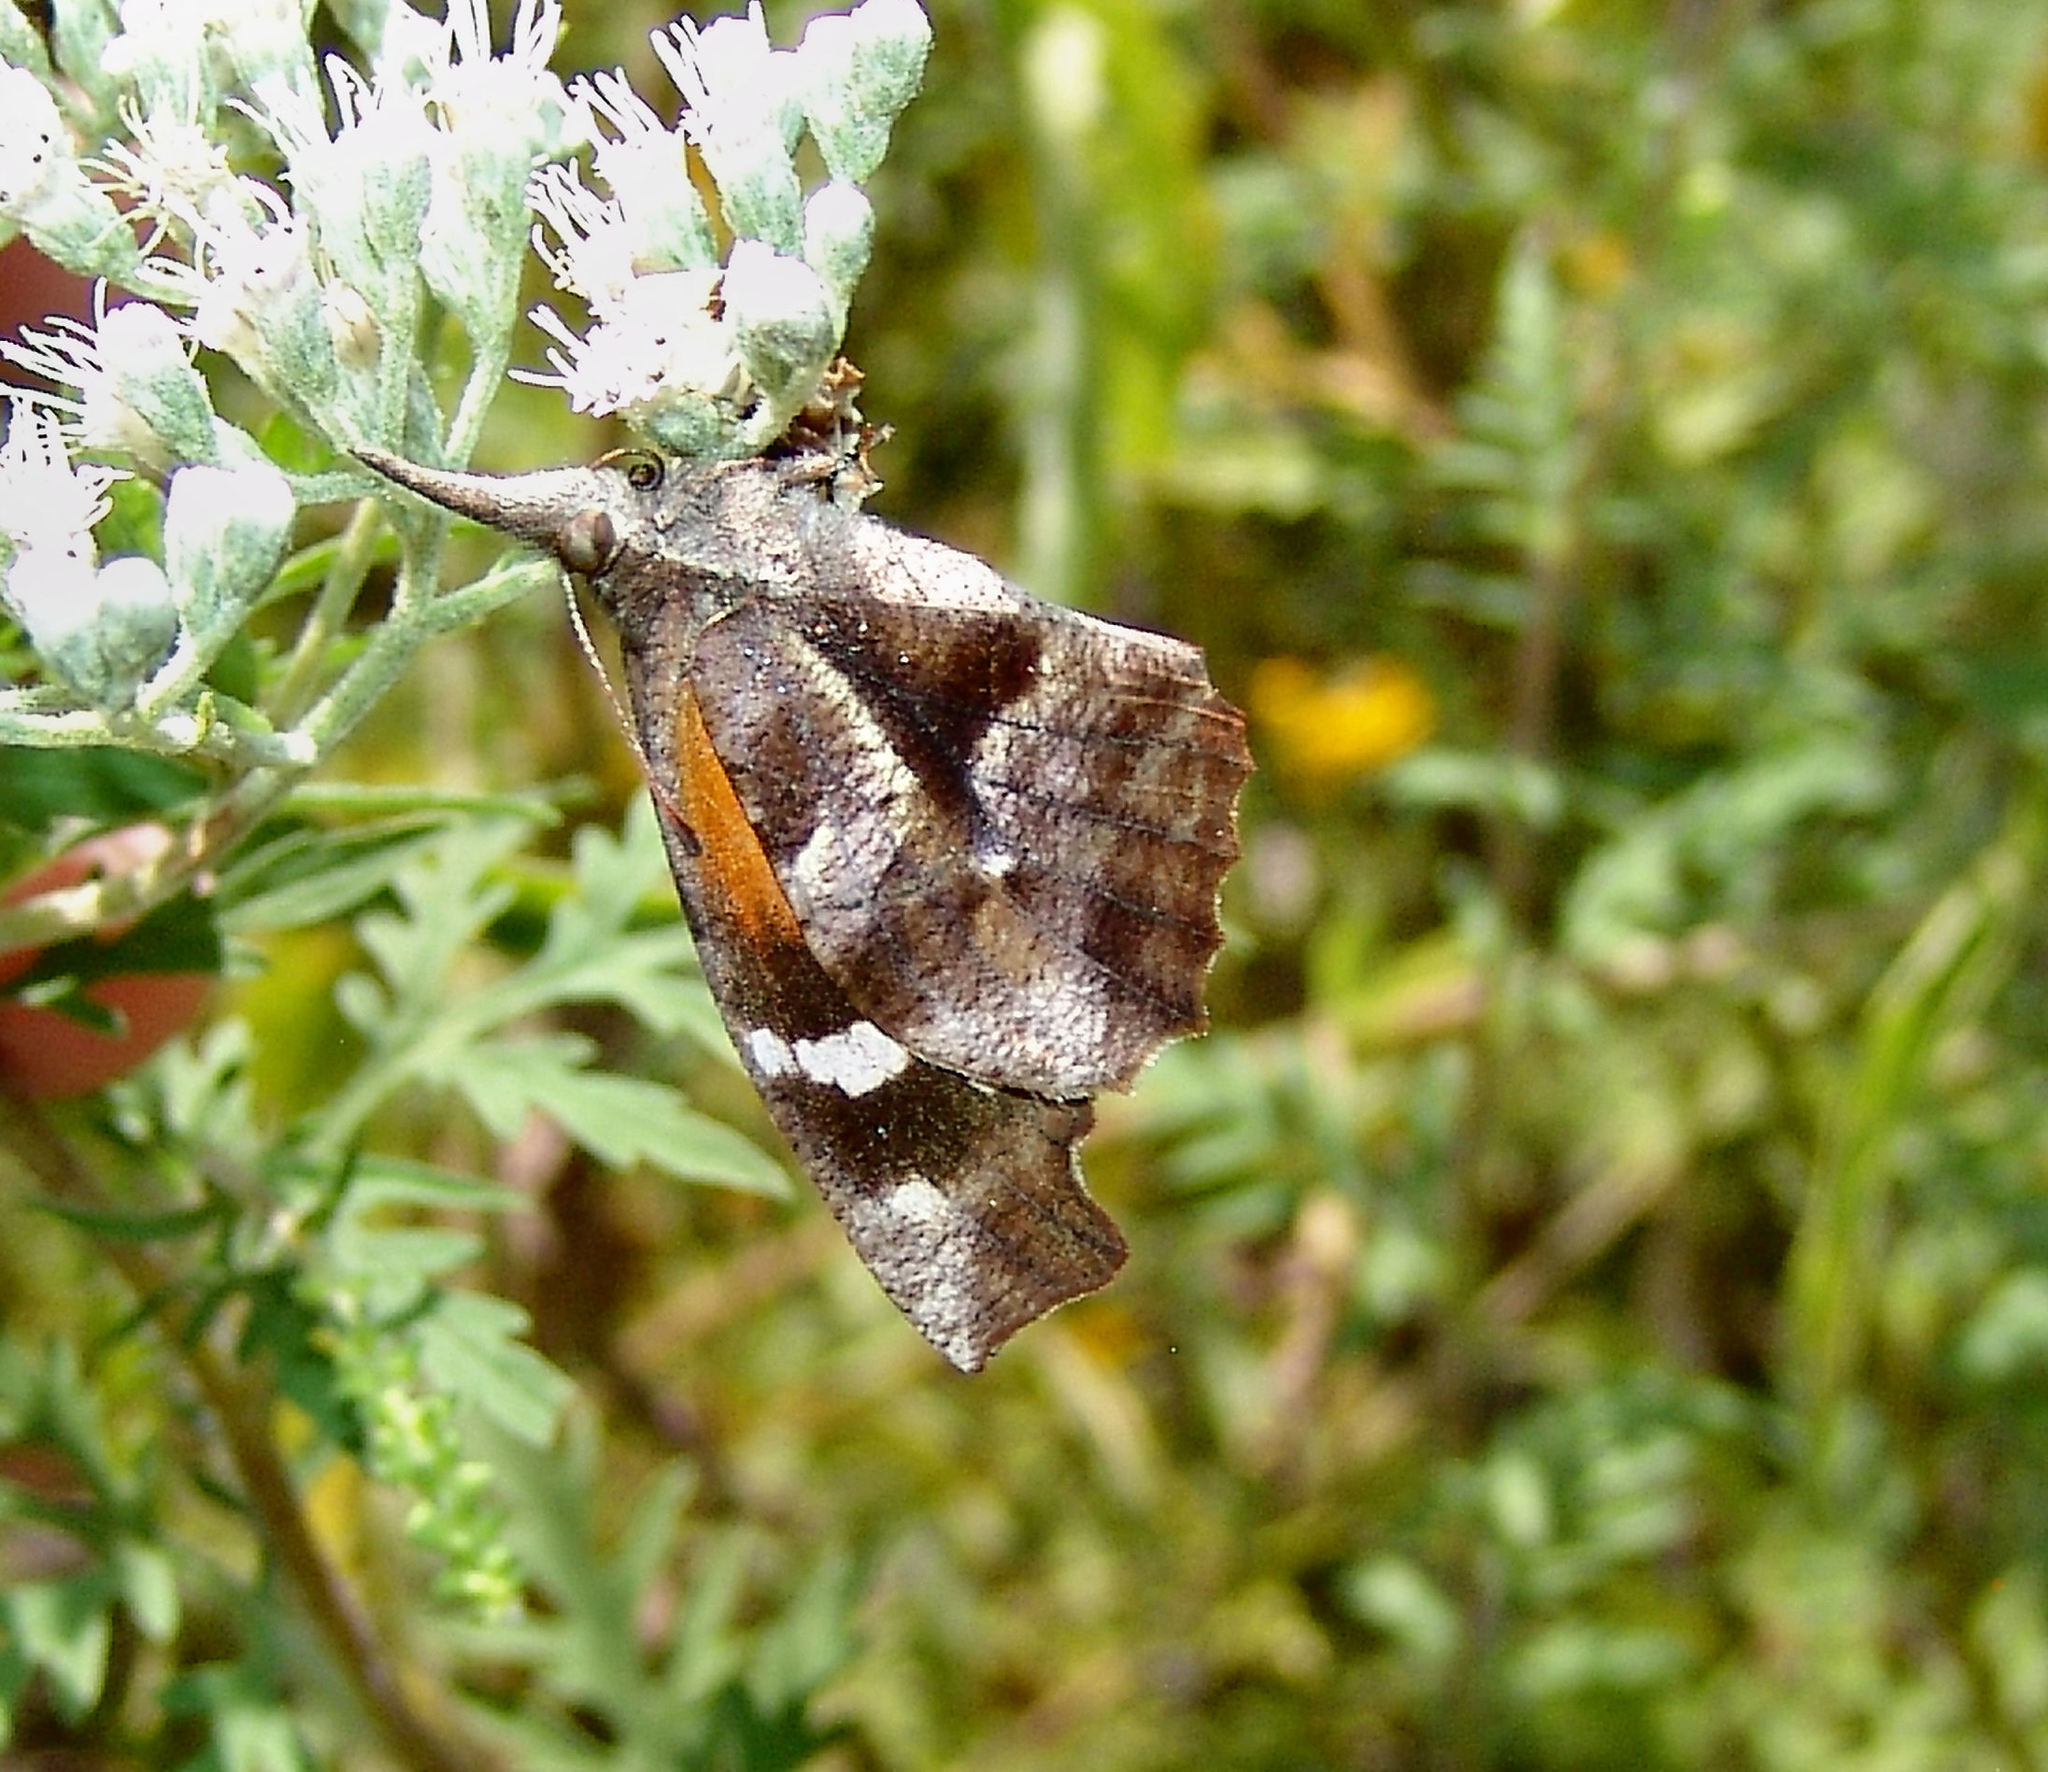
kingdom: Animalia
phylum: Arthropoda
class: Insecta
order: Lepidoptera
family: Nymphalidae
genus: Libytheana
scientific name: Libytheana carinenta
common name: American snout
